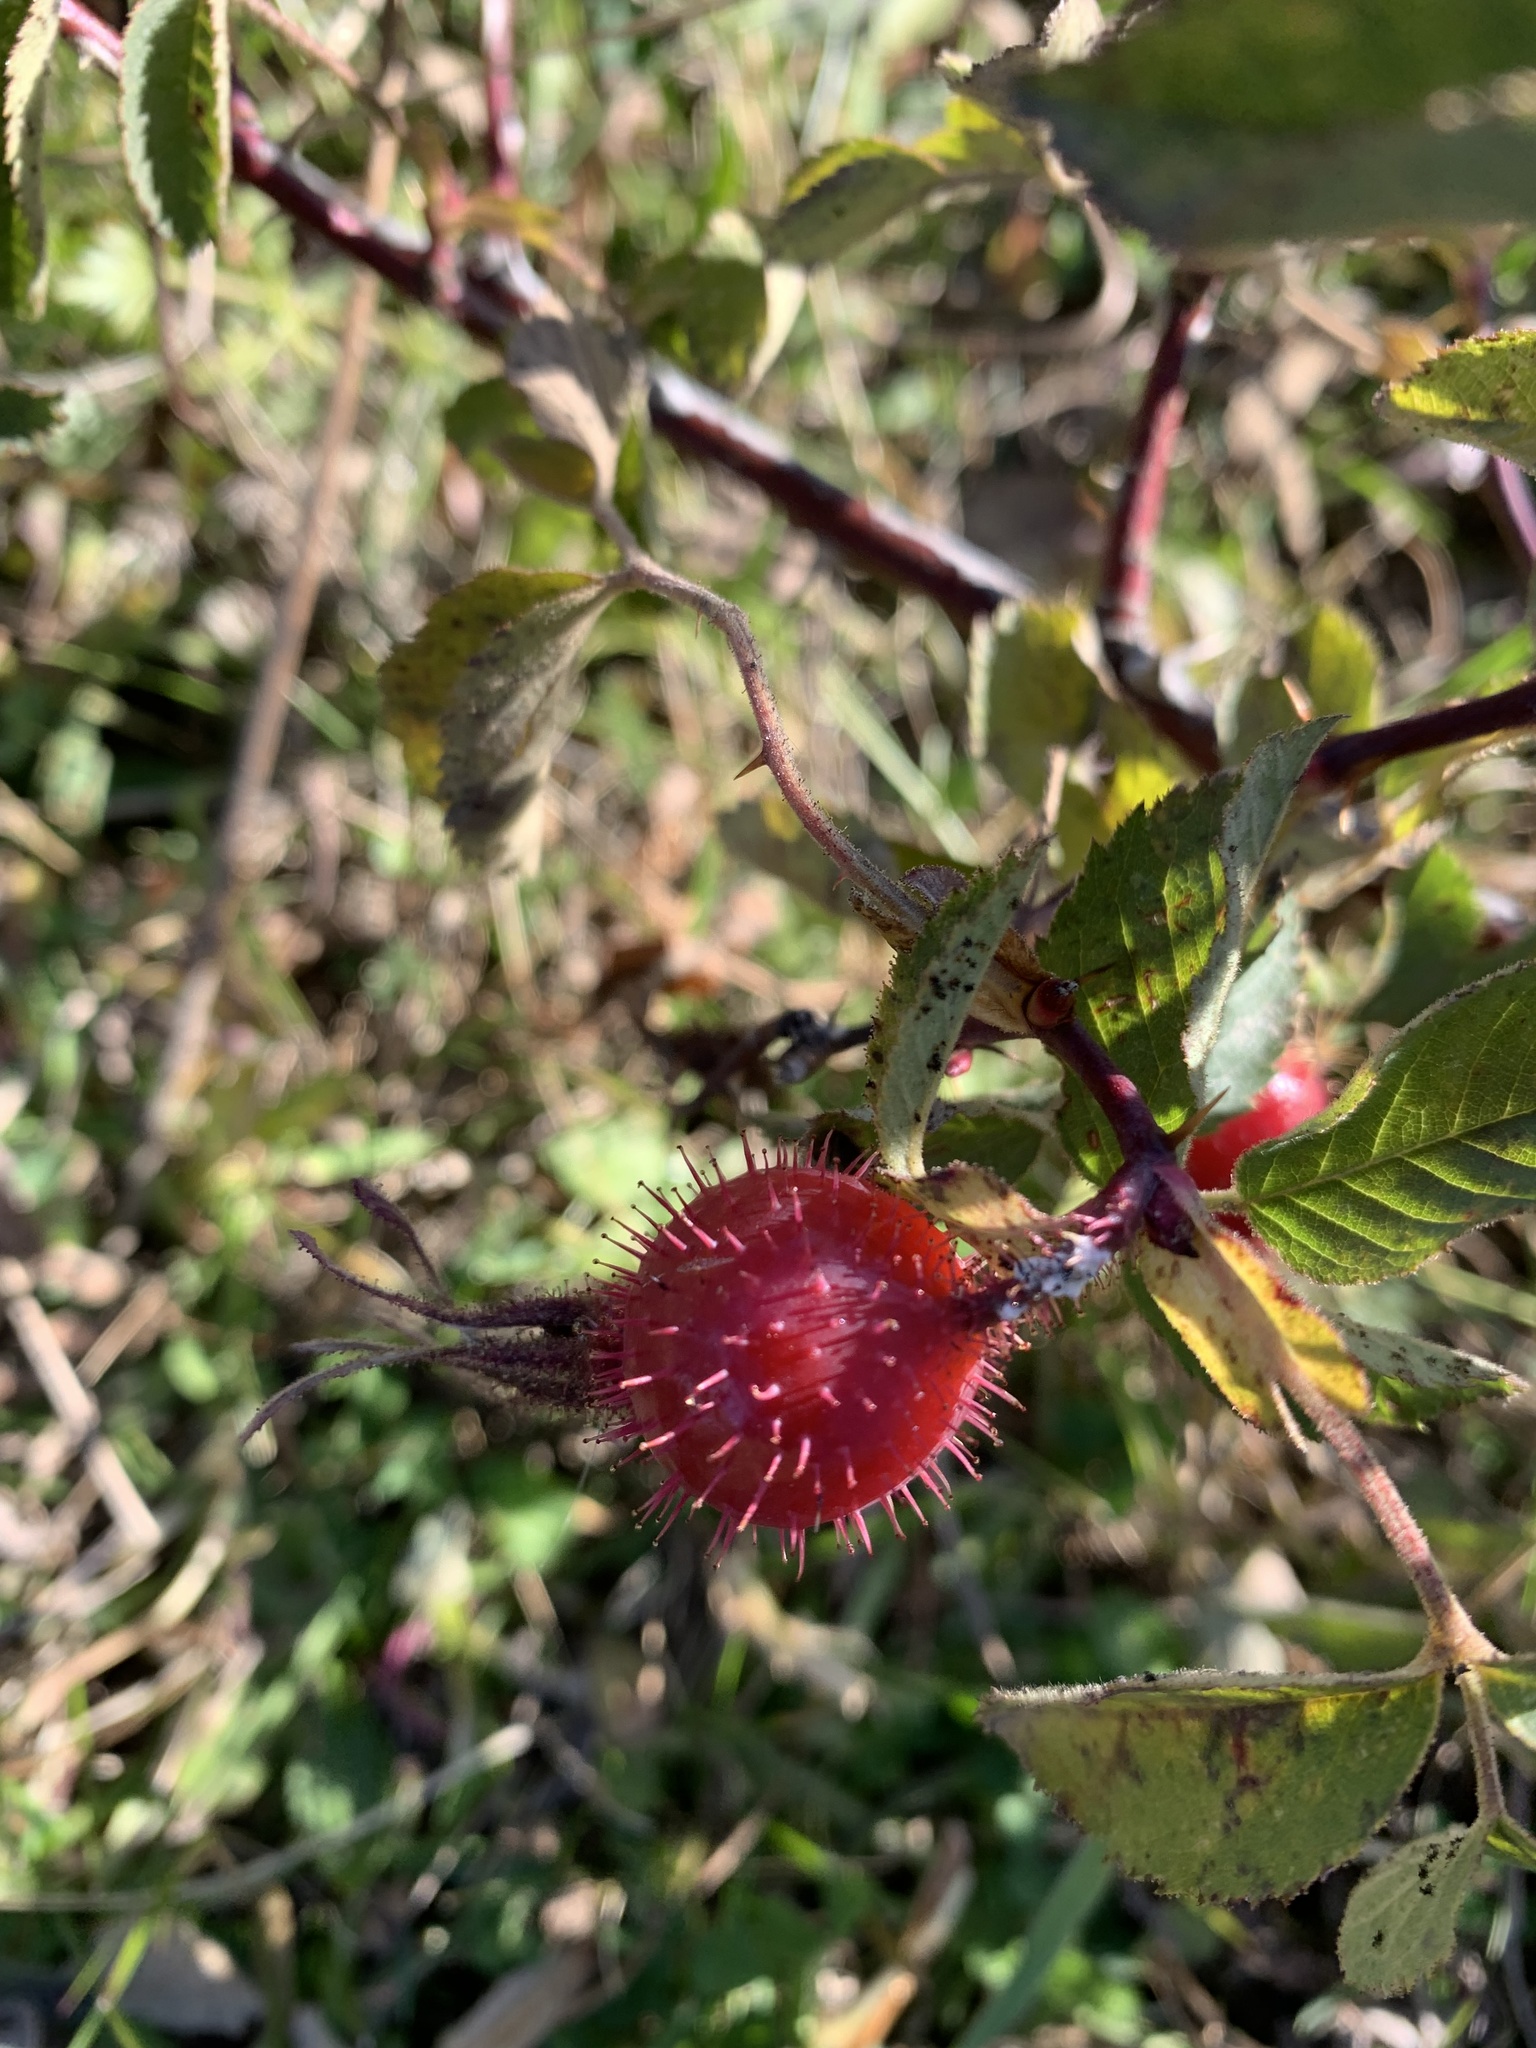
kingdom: Plantae
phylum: Tracheophyta
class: Magnoliopsida
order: Rosales
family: Rosaceae
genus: Rosa
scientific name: Rosa villosa
